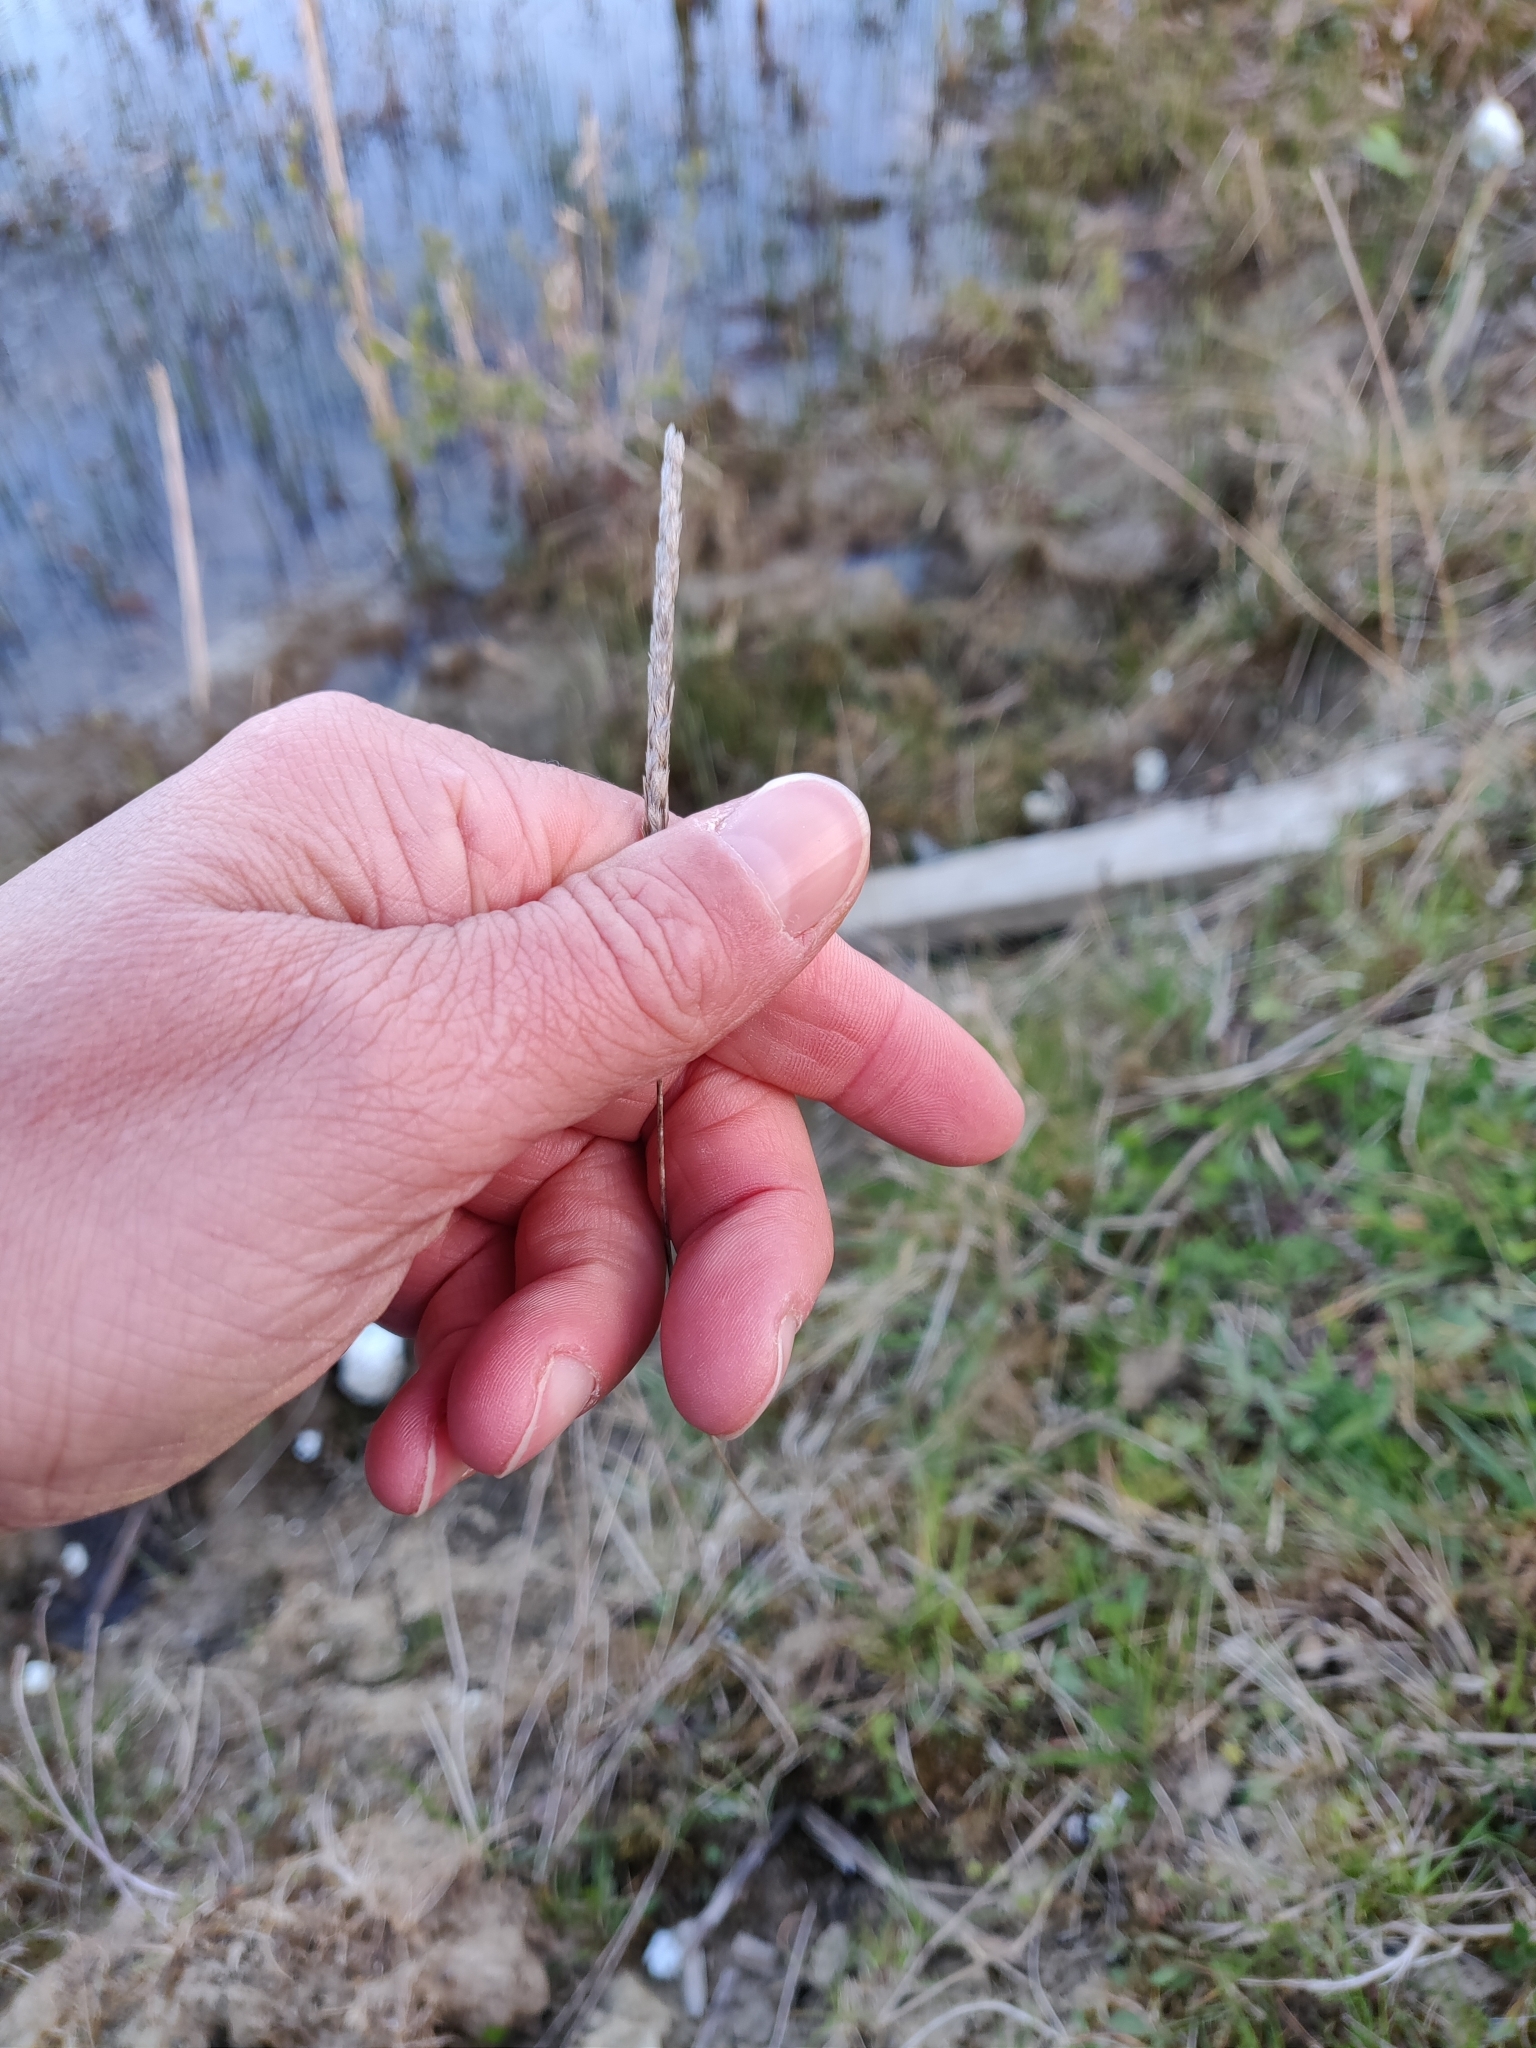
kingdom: Plantae
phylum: Tracheophyta
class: Liliopsida
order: Poales
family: Poaceae
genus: Cynosurus
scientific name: Cynosurus cristatus
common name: Crested dog's-tail
